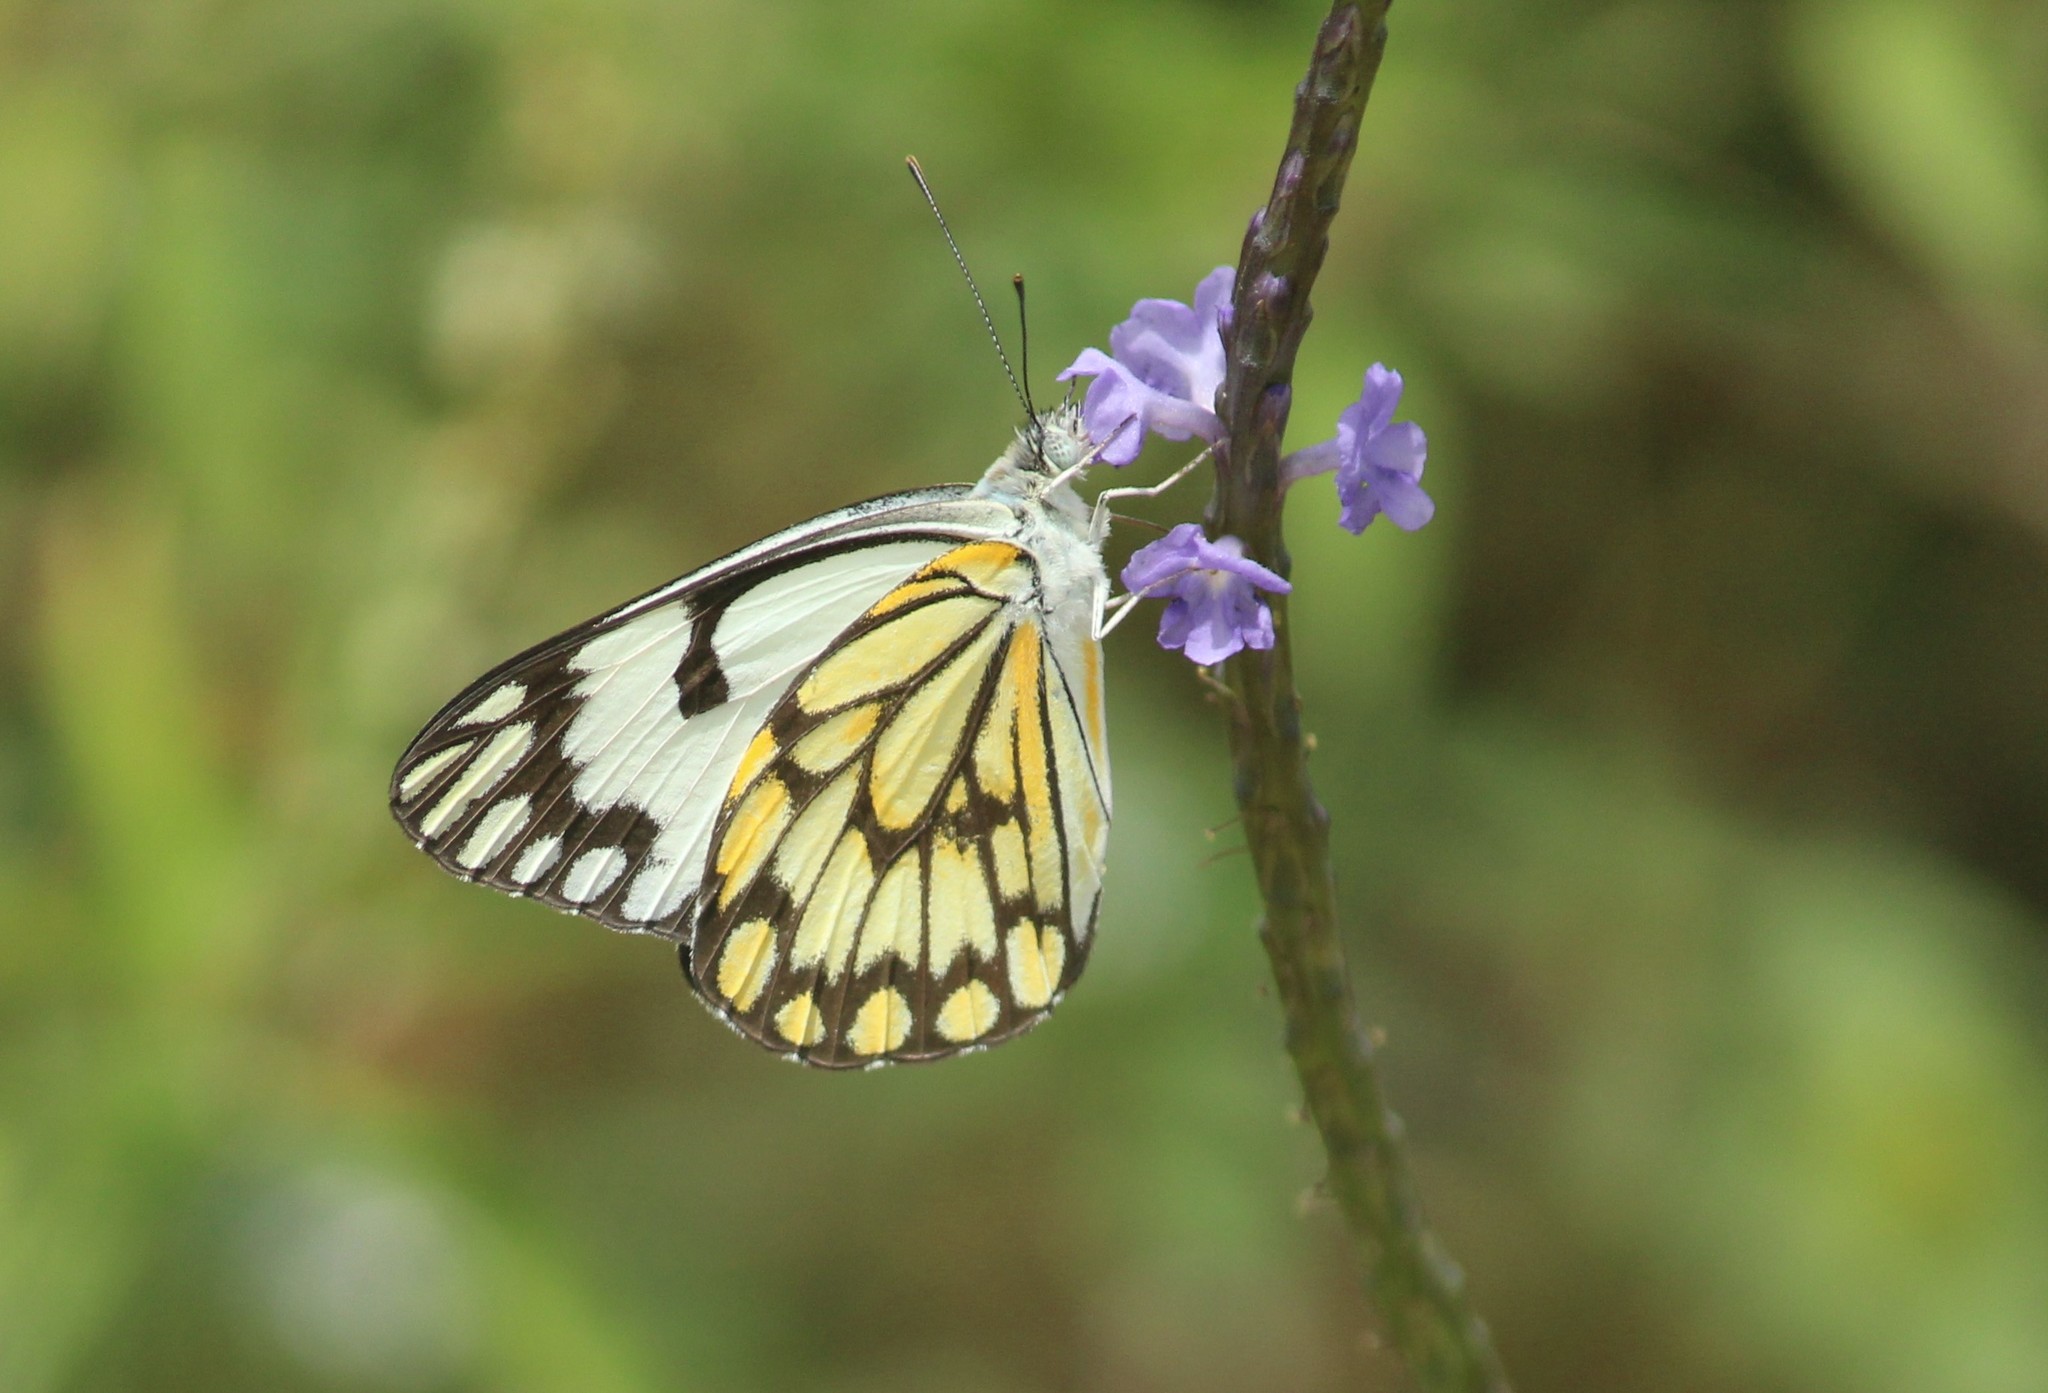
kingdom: Animalia
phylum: Arthropoda
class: Insecta
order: Lepidoptera
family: Pieridae
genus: Belenois
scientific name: Belenois aurota
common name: Brown-veined white
